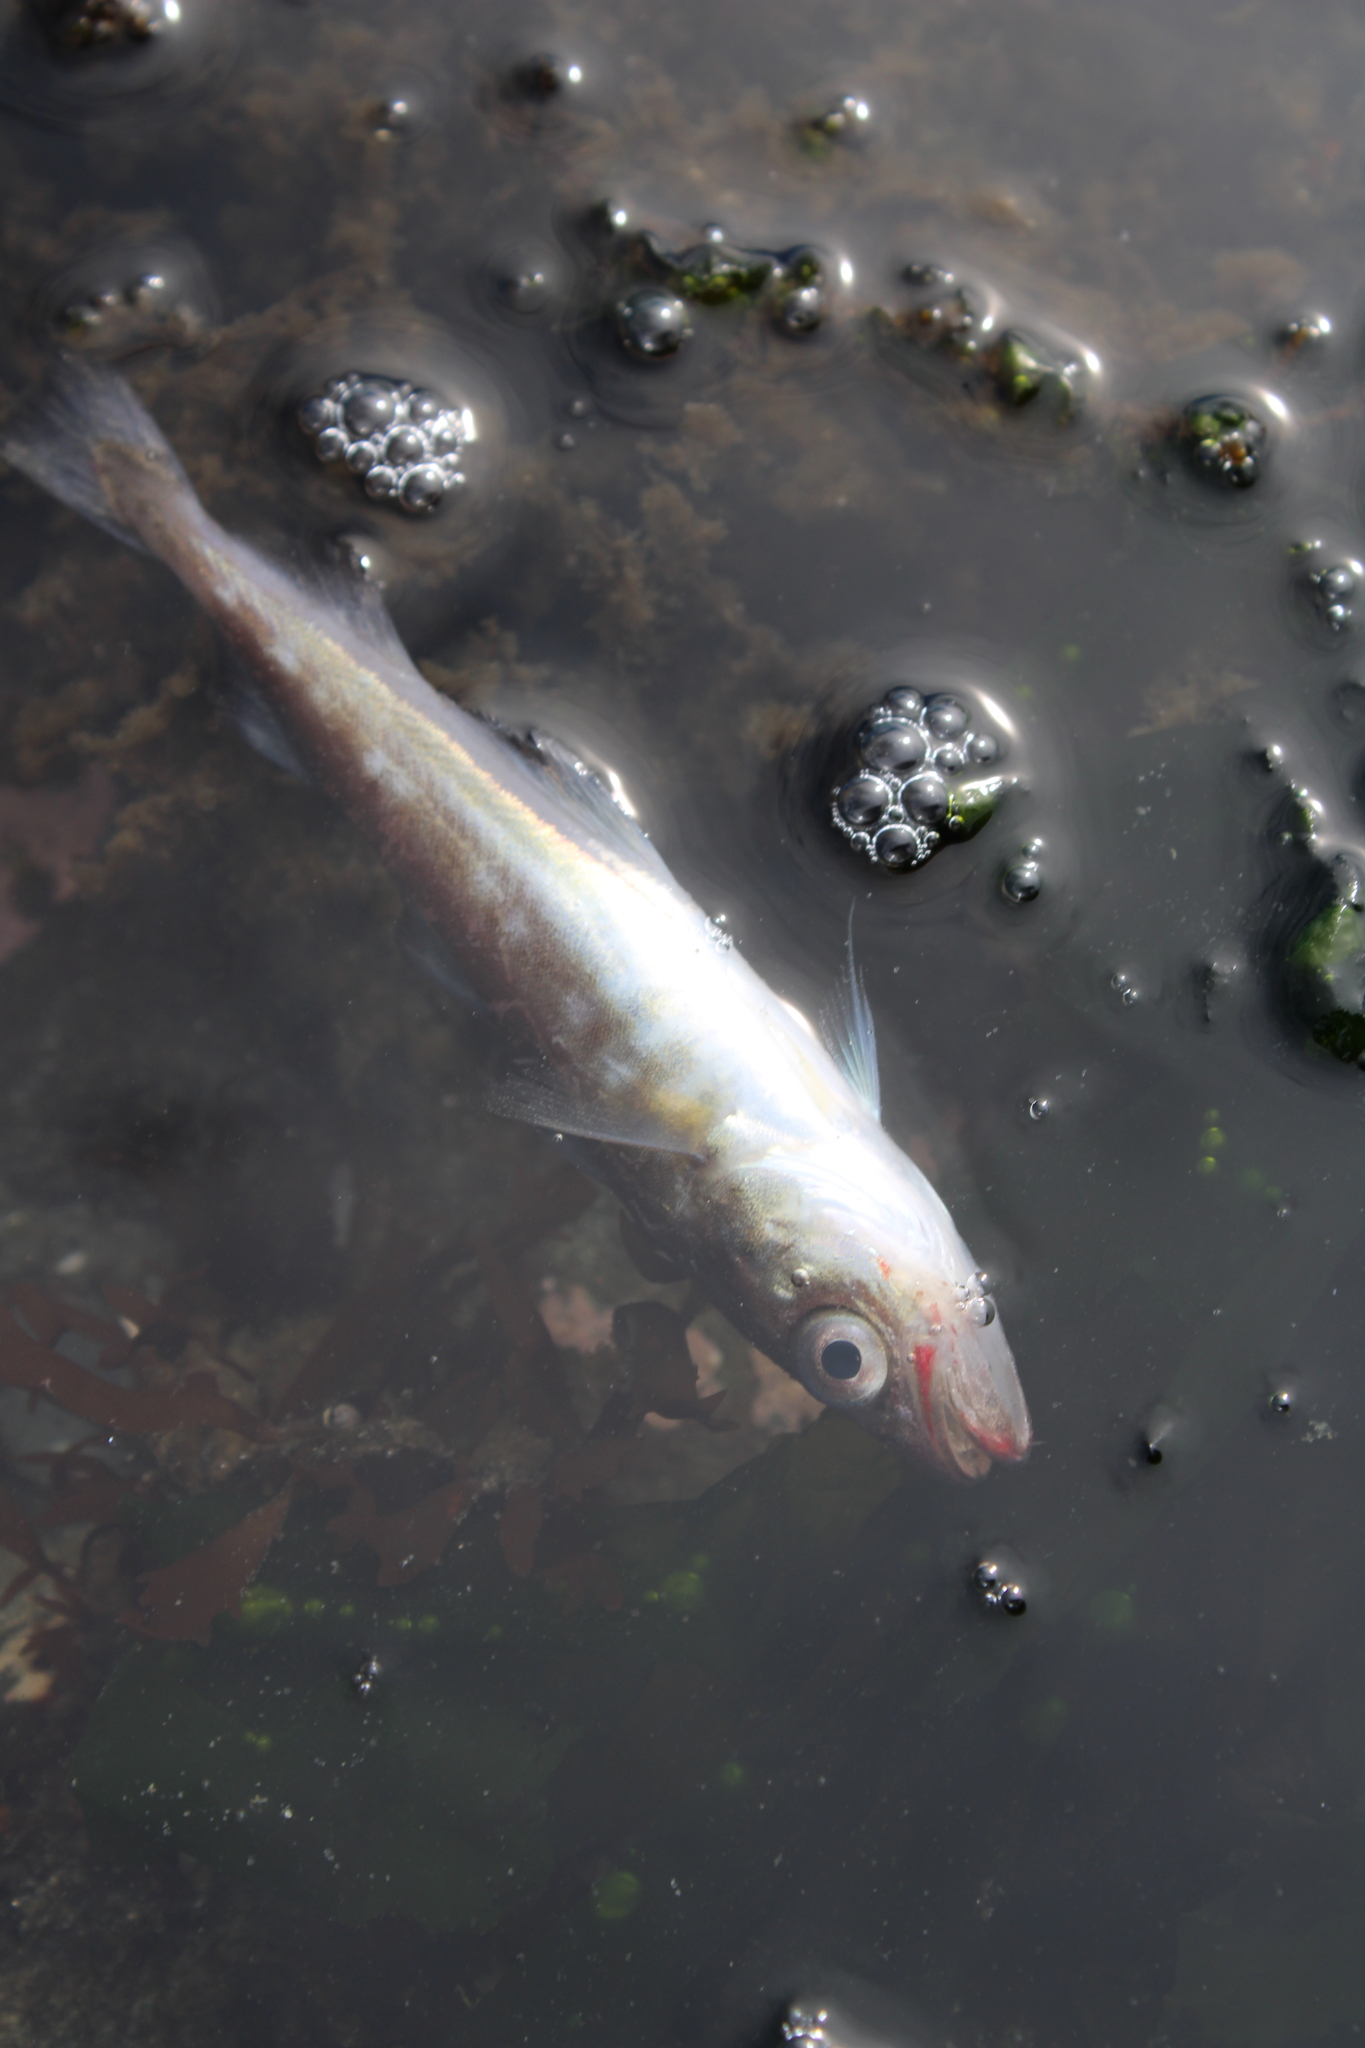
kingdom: Animalia
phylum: Chordata
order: Gadiformes
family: Gadidae
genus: Microgadus
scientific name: Microgadus proximus
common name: Pacific tomcod
